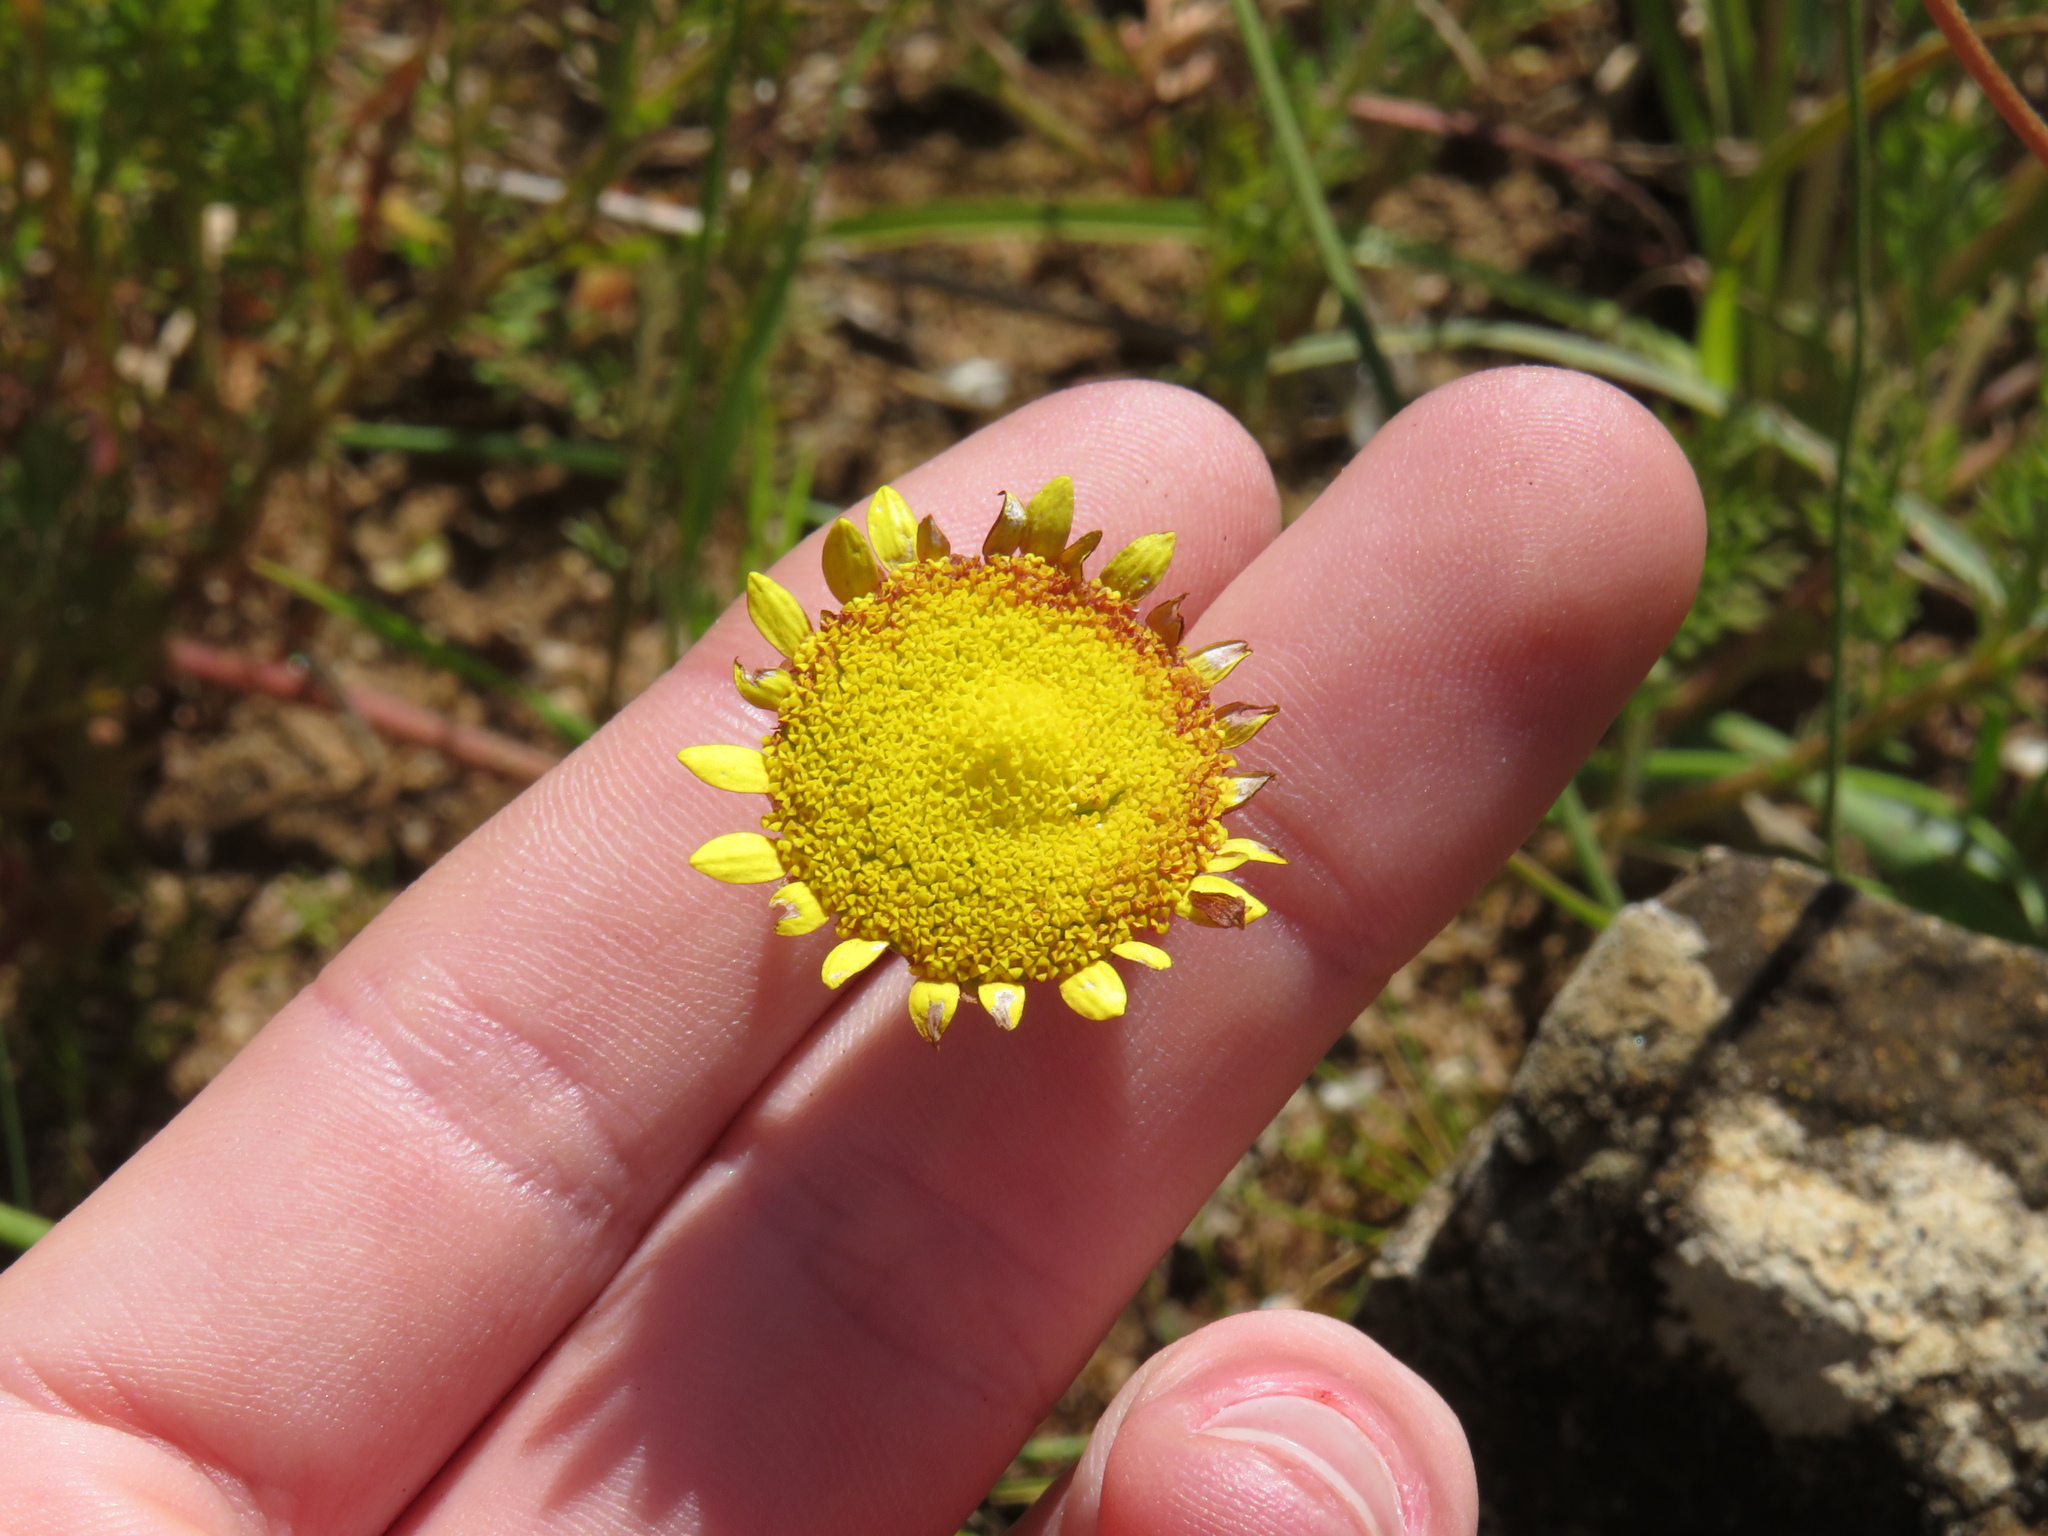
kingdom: Plantae
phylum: Tracheophyta
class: Magnoliopsida
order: Asterales
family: Asteraceae
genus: Cotula
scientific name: Cotula pruinosa
